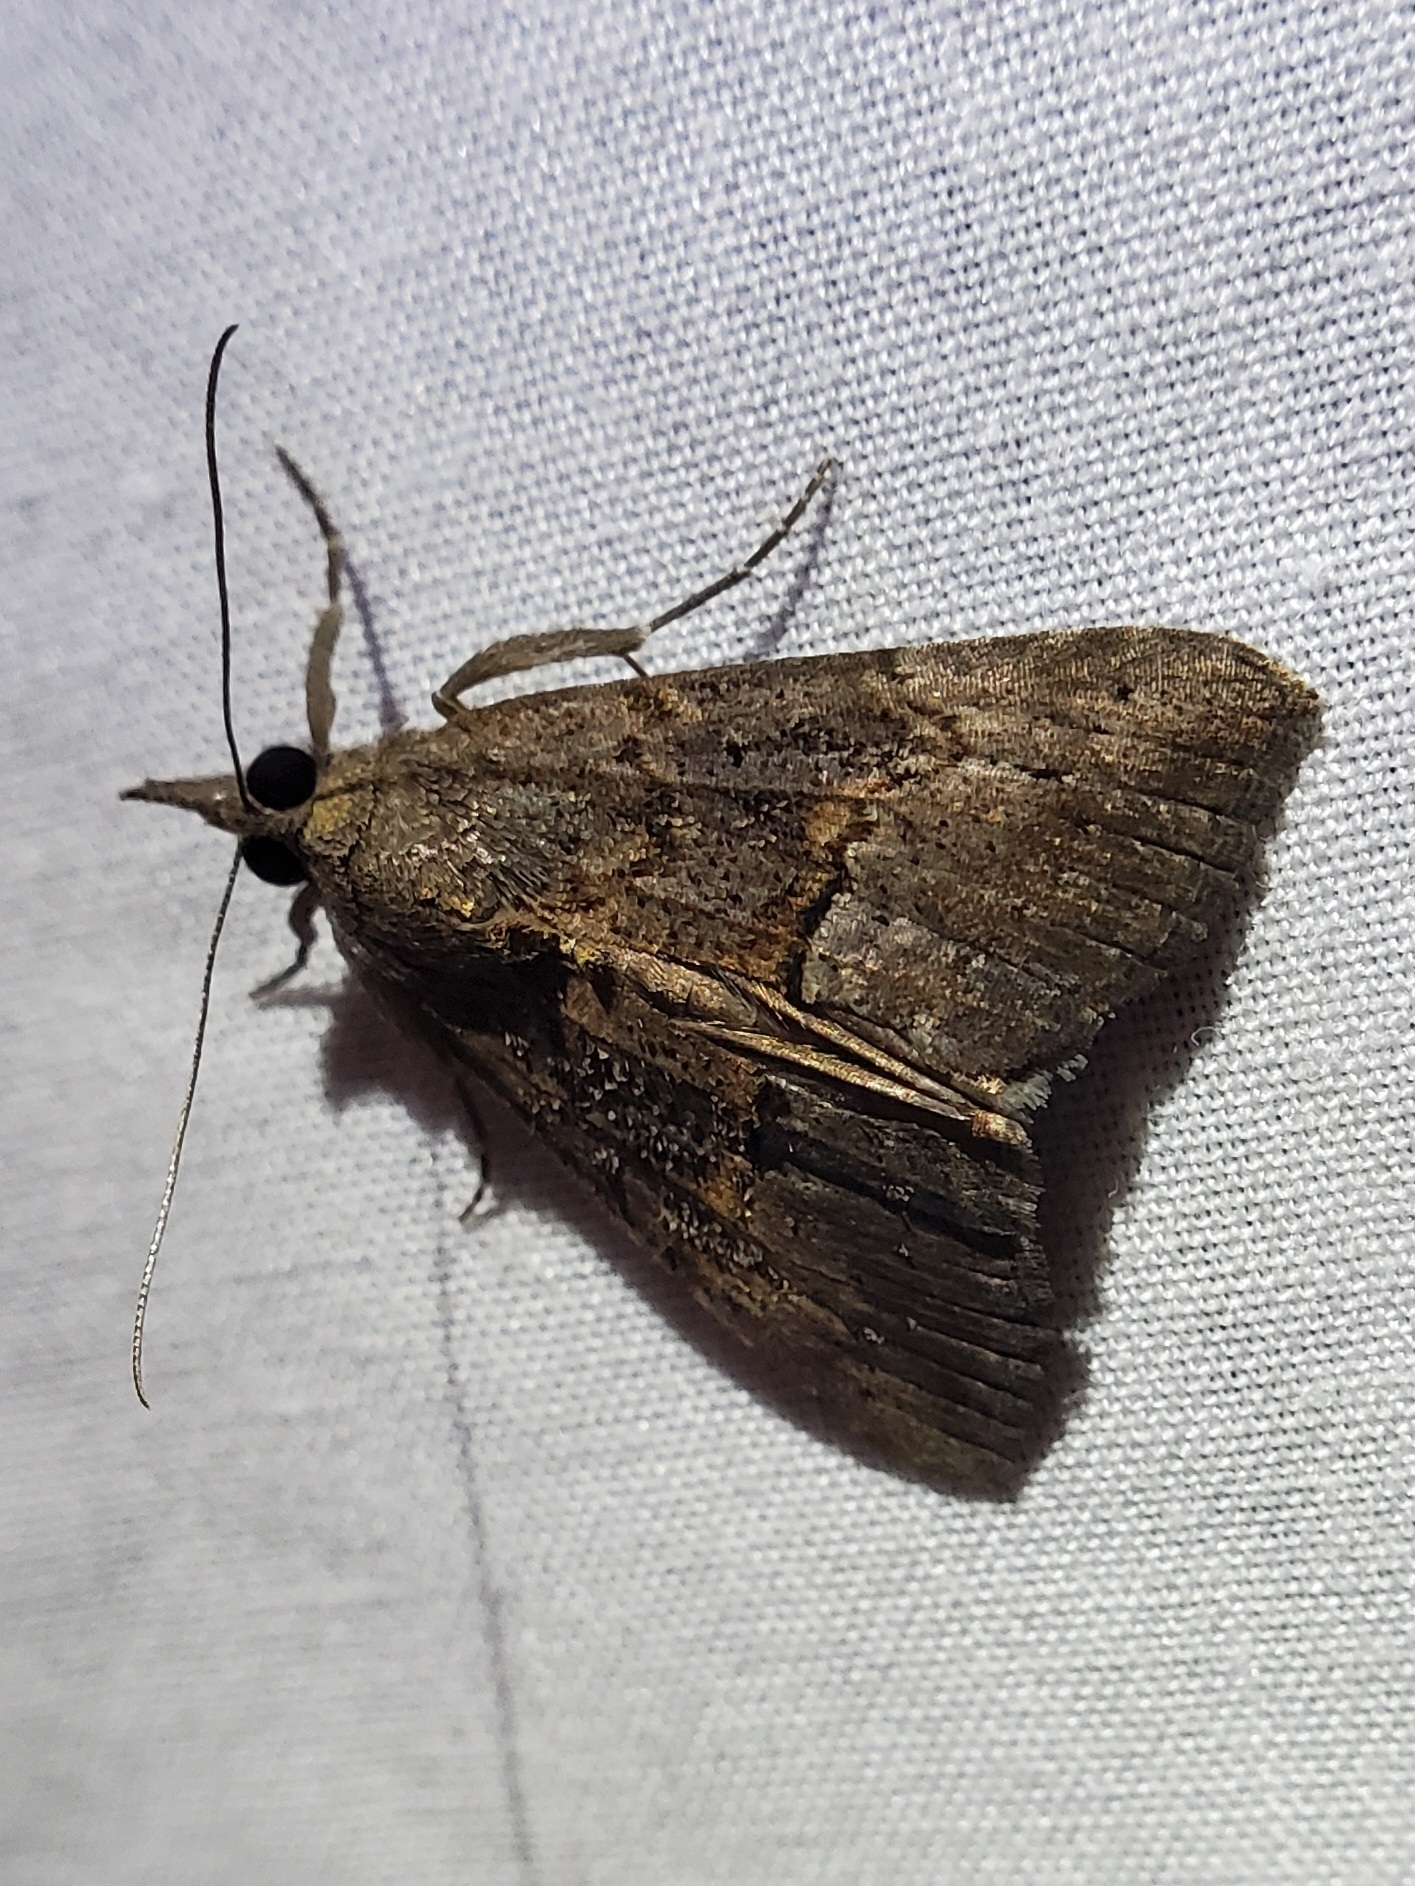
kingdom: Animalia
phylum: Arthropoda
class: Insecta
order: Lepidoptera
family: Erebidae
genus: Hypena
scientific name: Hypena scabra
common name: Green cloverworm
